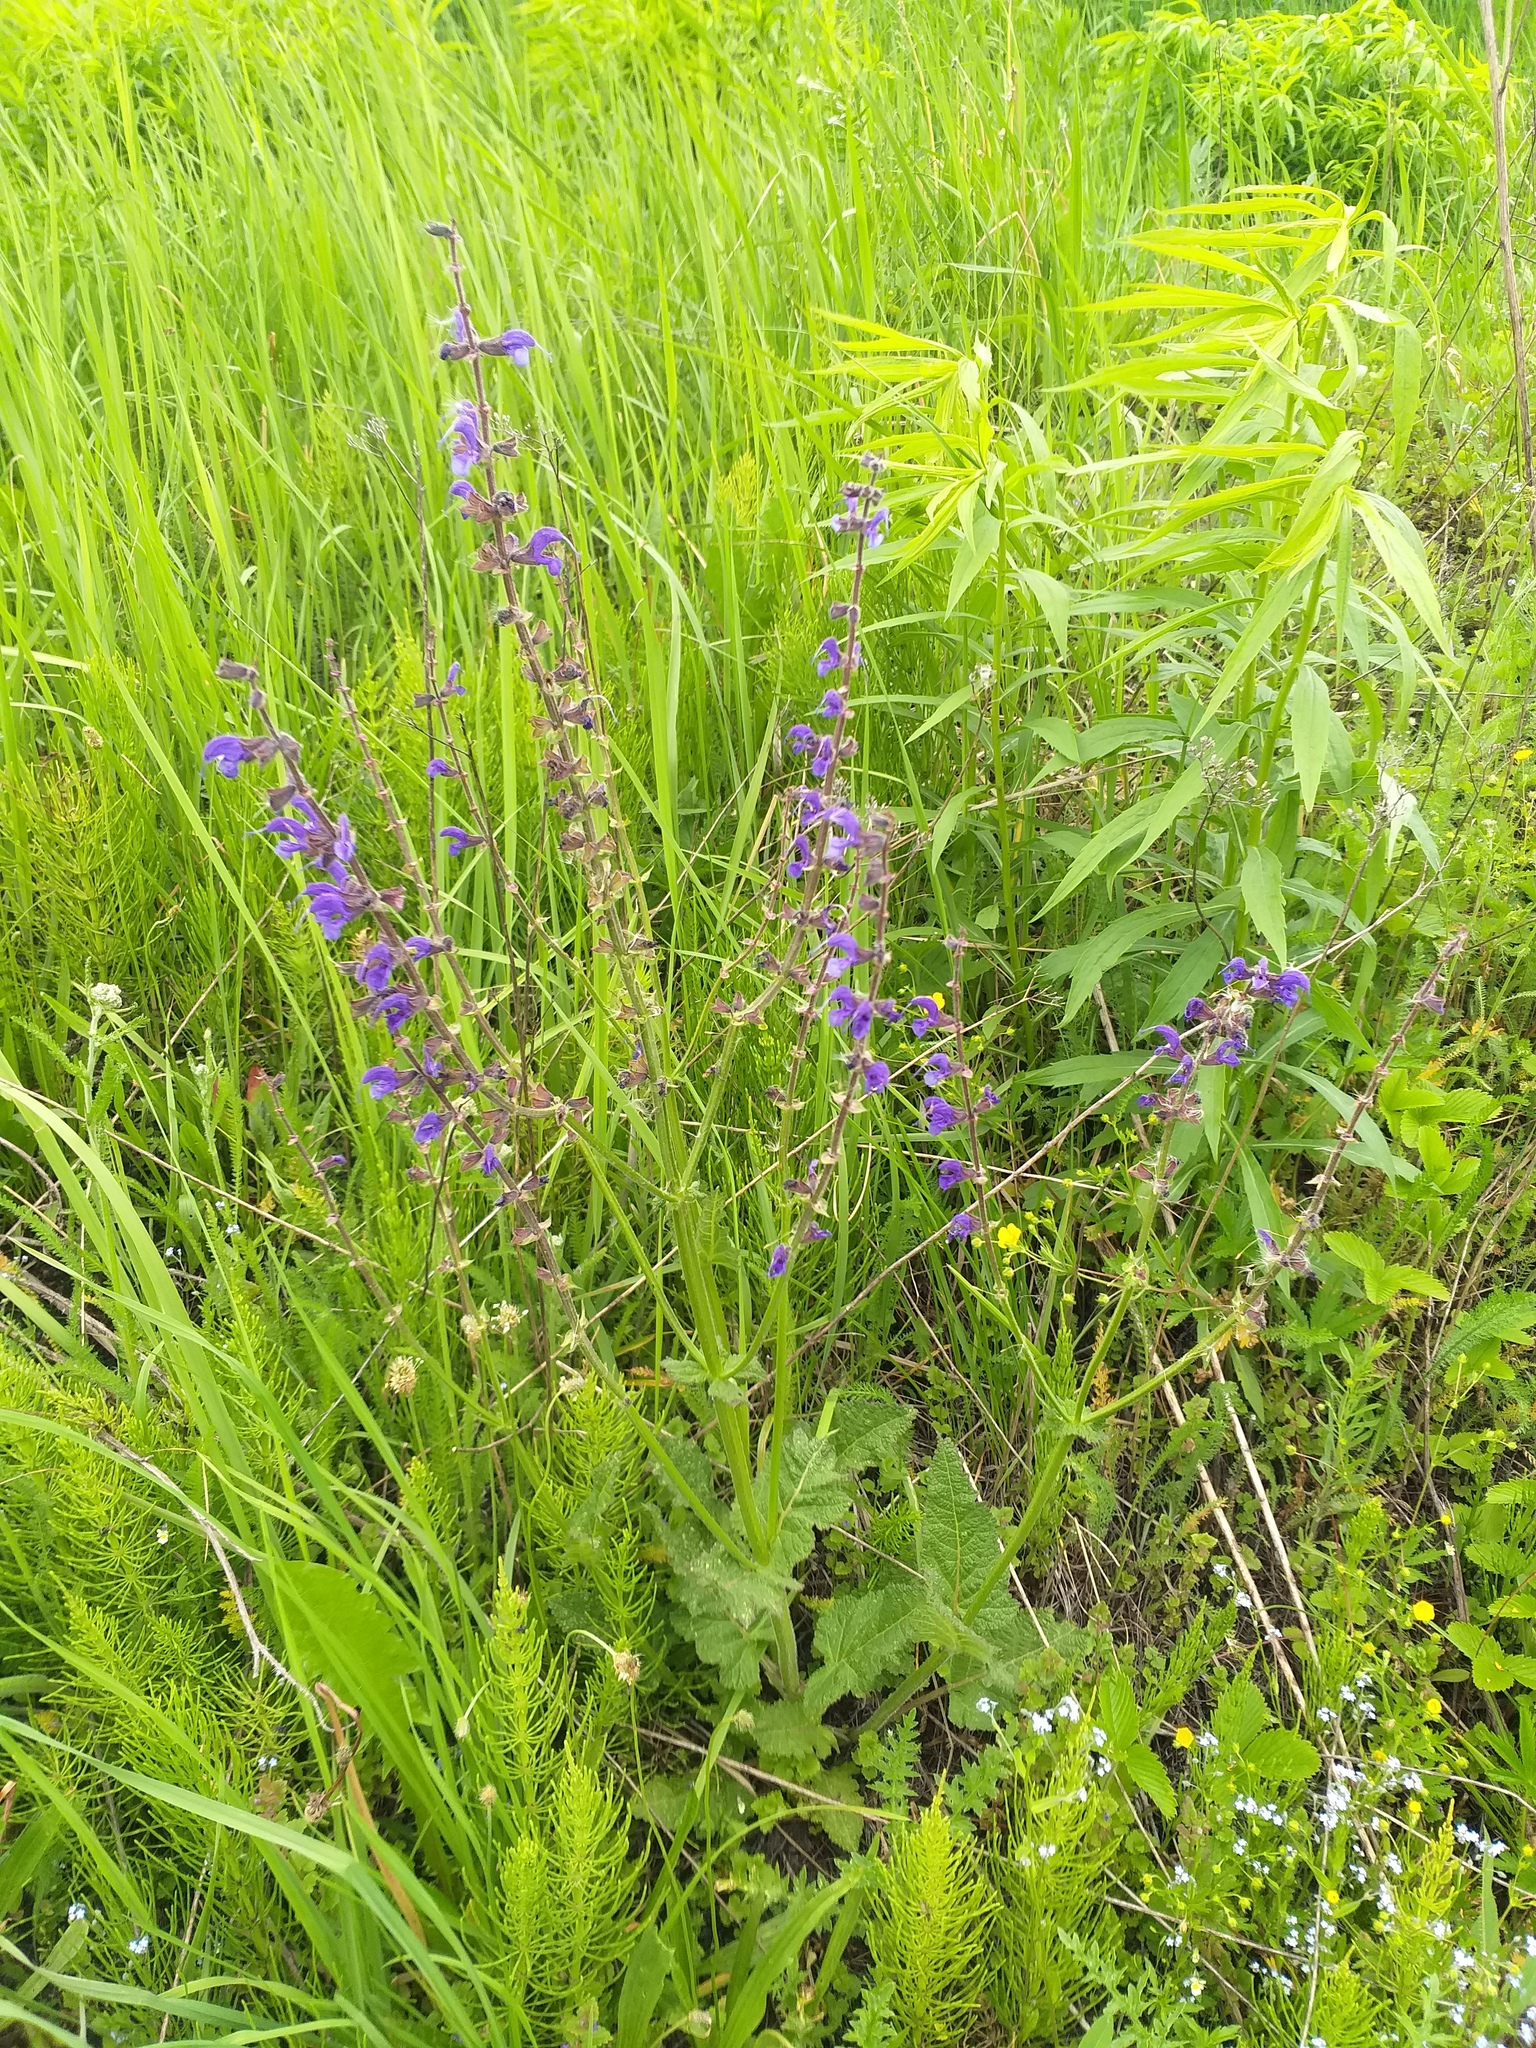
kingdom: Plantae
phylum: Tracheophyta
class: Magnoliopsida
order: Lamiales
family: Lamiaceae
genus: Salvia
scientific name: Salvia pratensis
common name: Meadow sage
